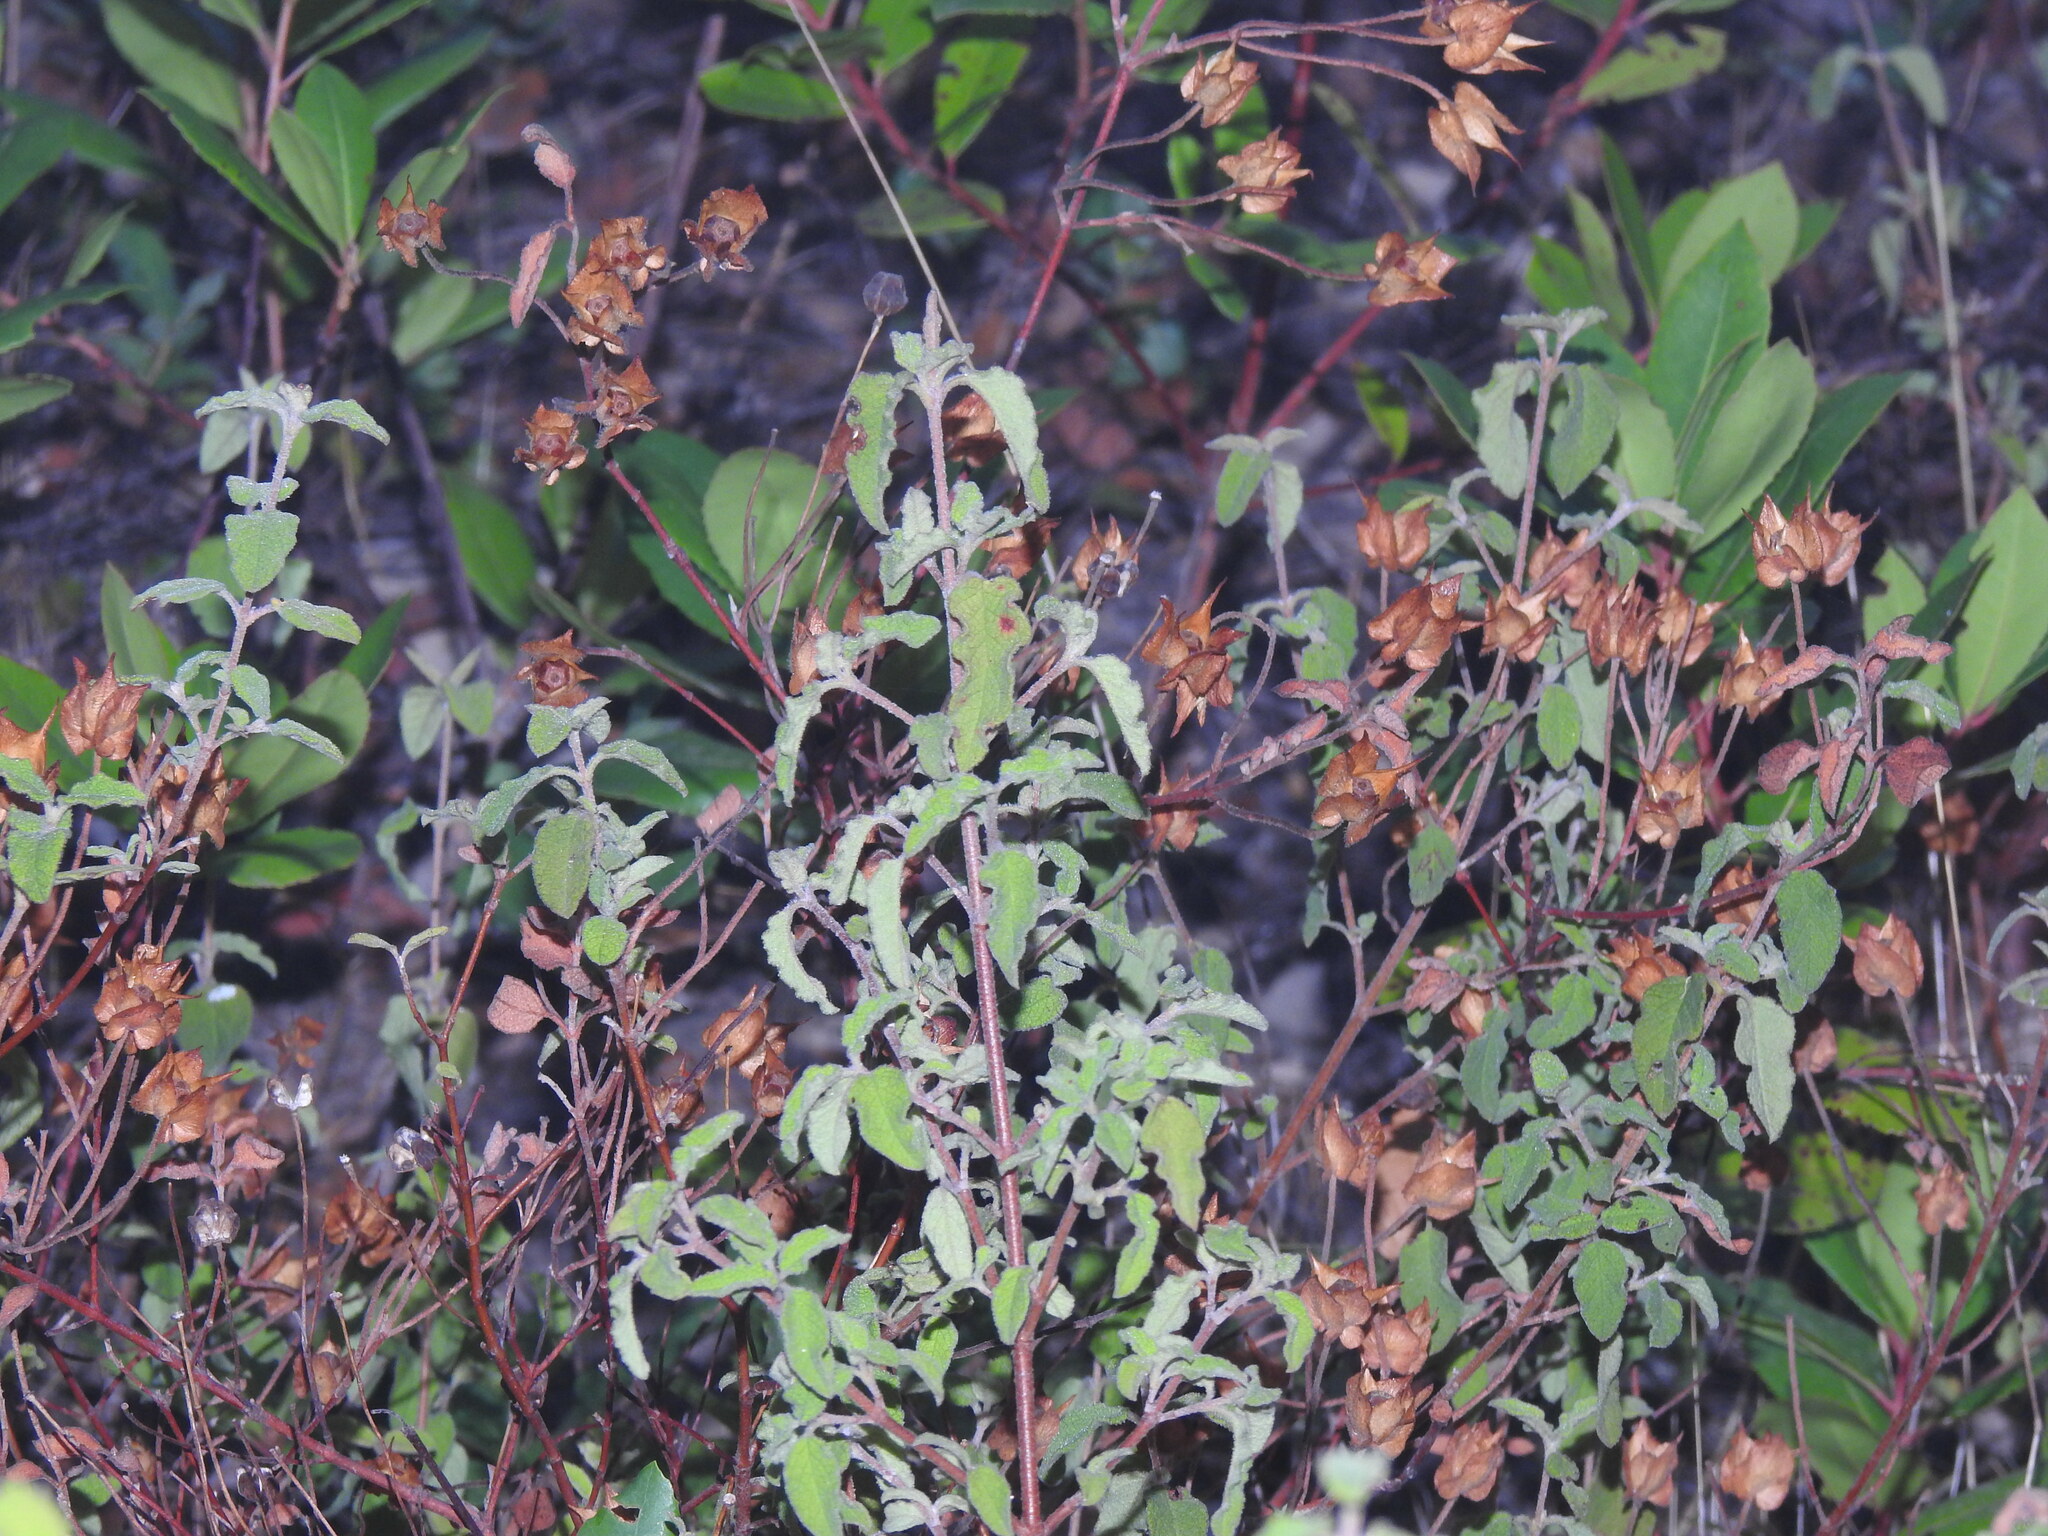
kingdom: Plantae
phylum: Tracheophyta
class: Magnoliopsida
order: Malvales
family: Cistaceae
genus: Cistus
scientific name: Cistus salviifolius
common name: Salvia cistus
